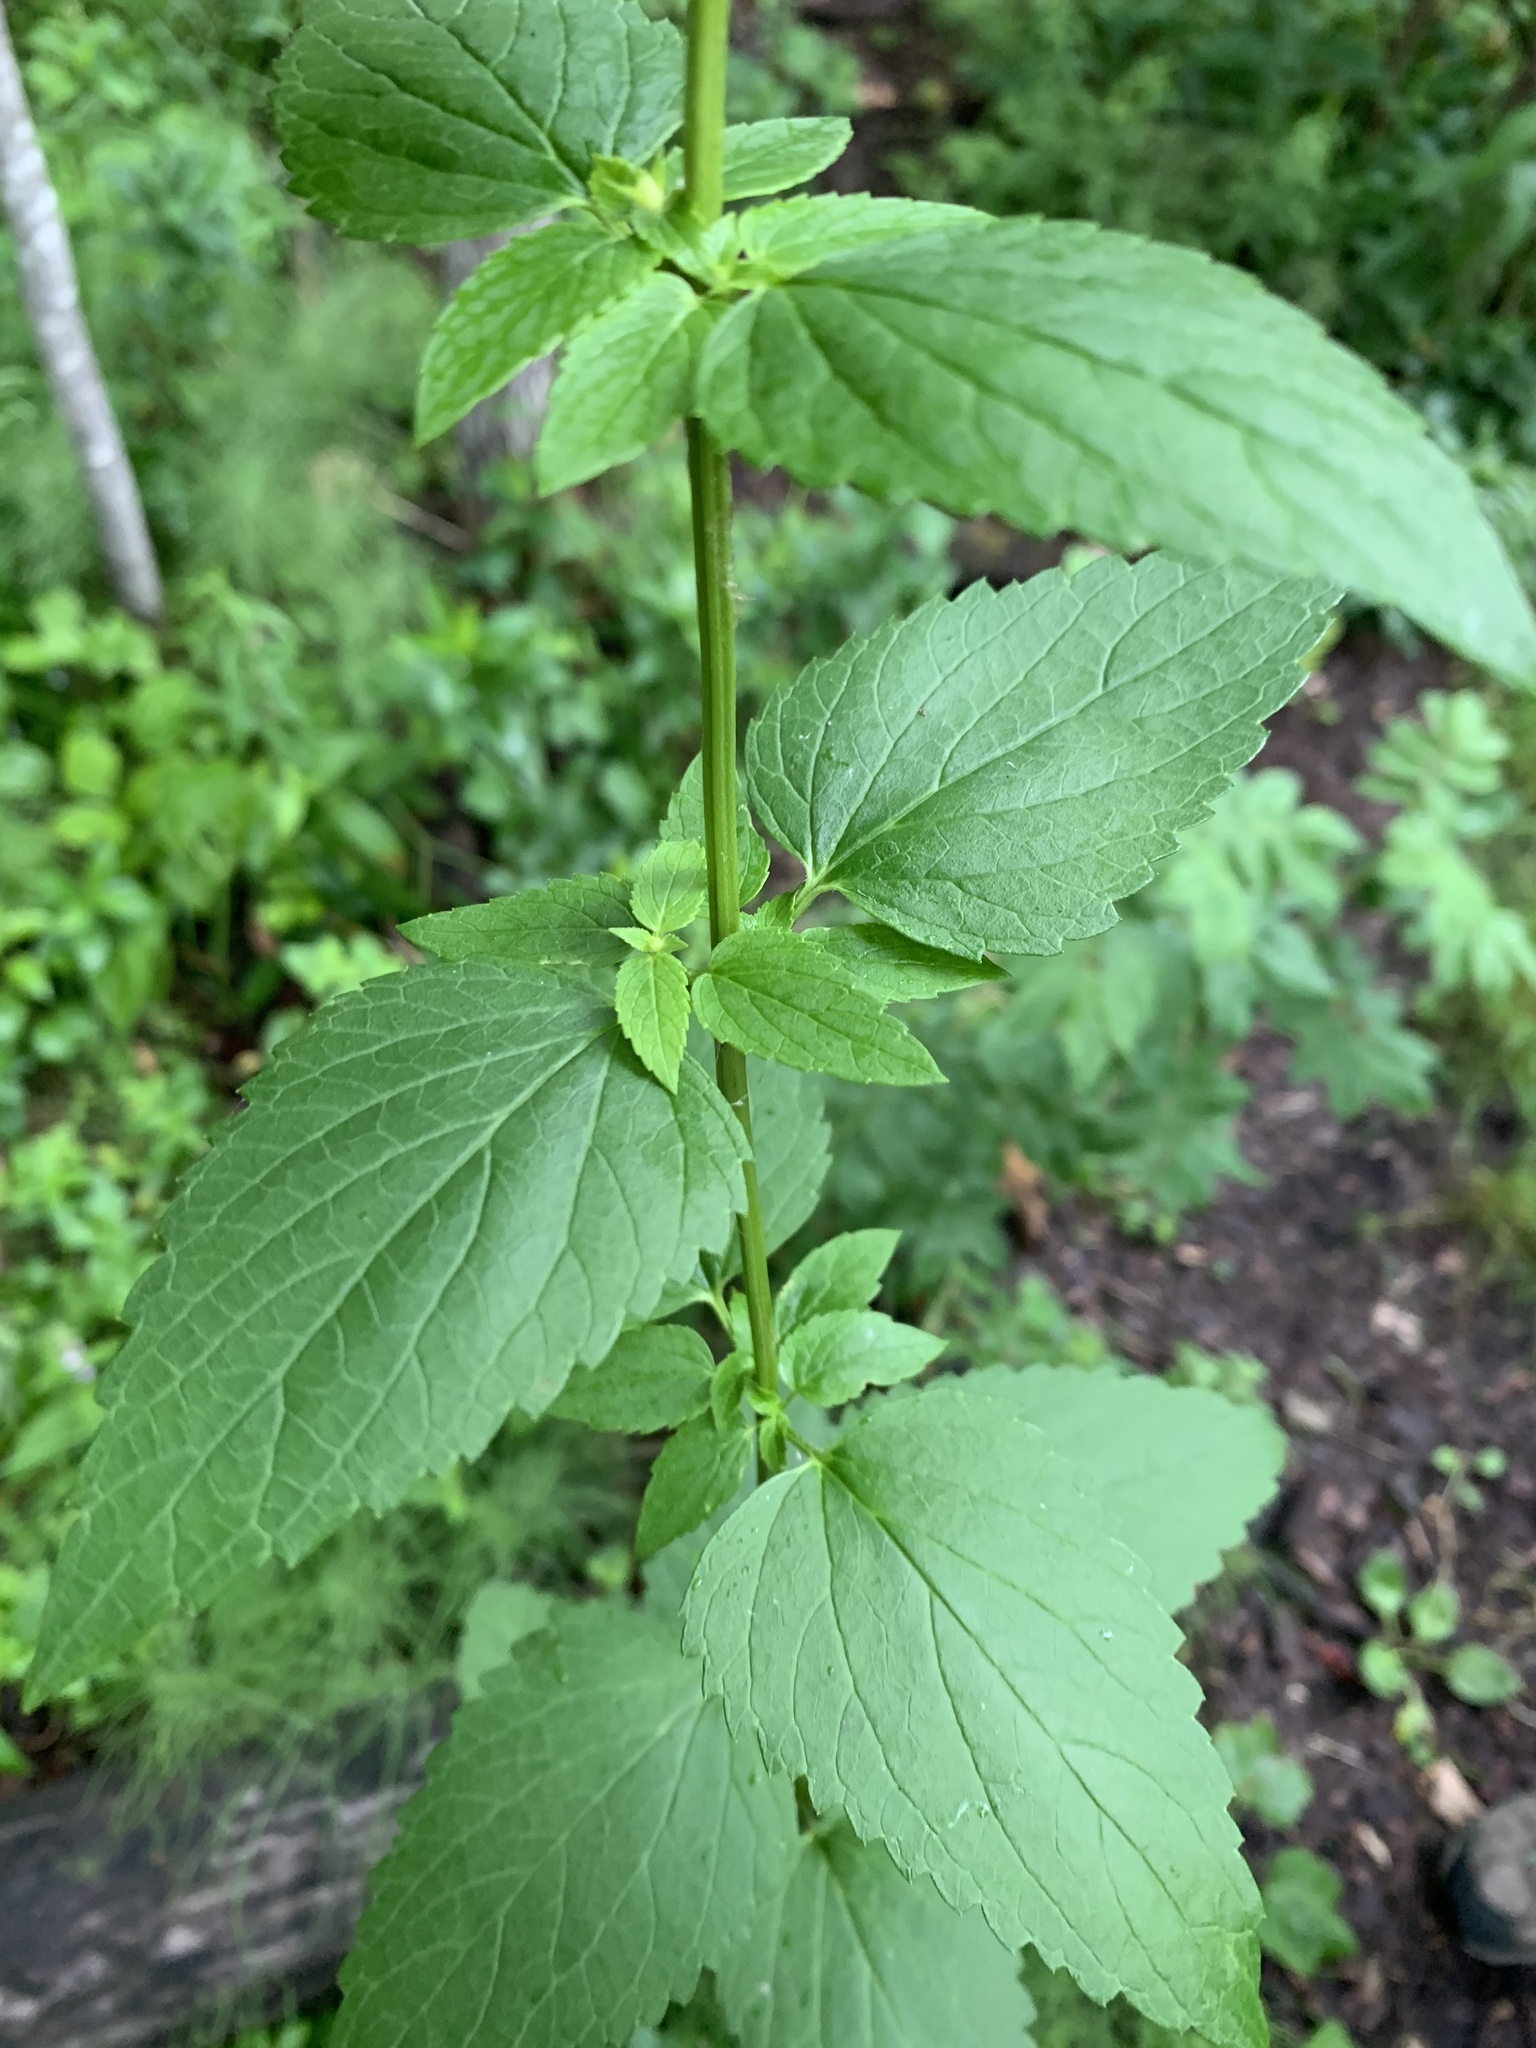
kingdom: Plantae
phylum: Tracheophyta
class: Magnoliopsida
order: Lamiales
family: Lamiaceae
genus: Agastache
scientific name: Agastache foeniculum
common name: Anise hyssop
